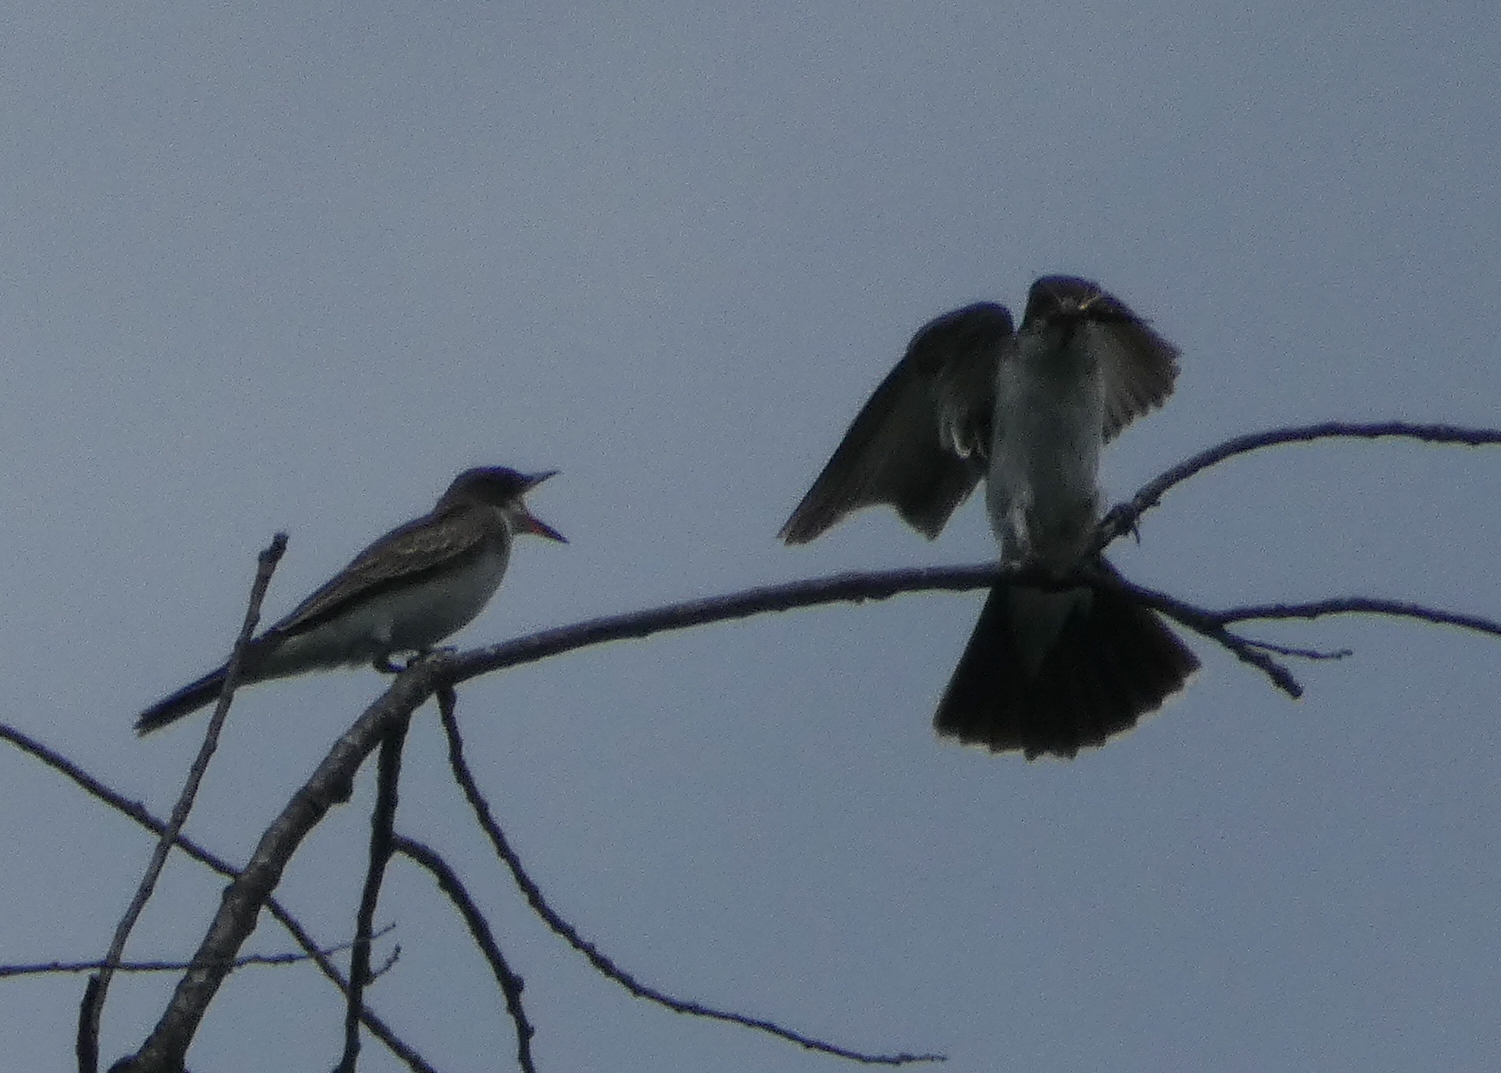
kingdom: Animalia
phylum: Chordata
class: Aves
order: Passeriformes
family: Tyrannidae
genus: Tyrannus
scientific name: Tyrannus tyrannus
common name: Eastern kingbird
